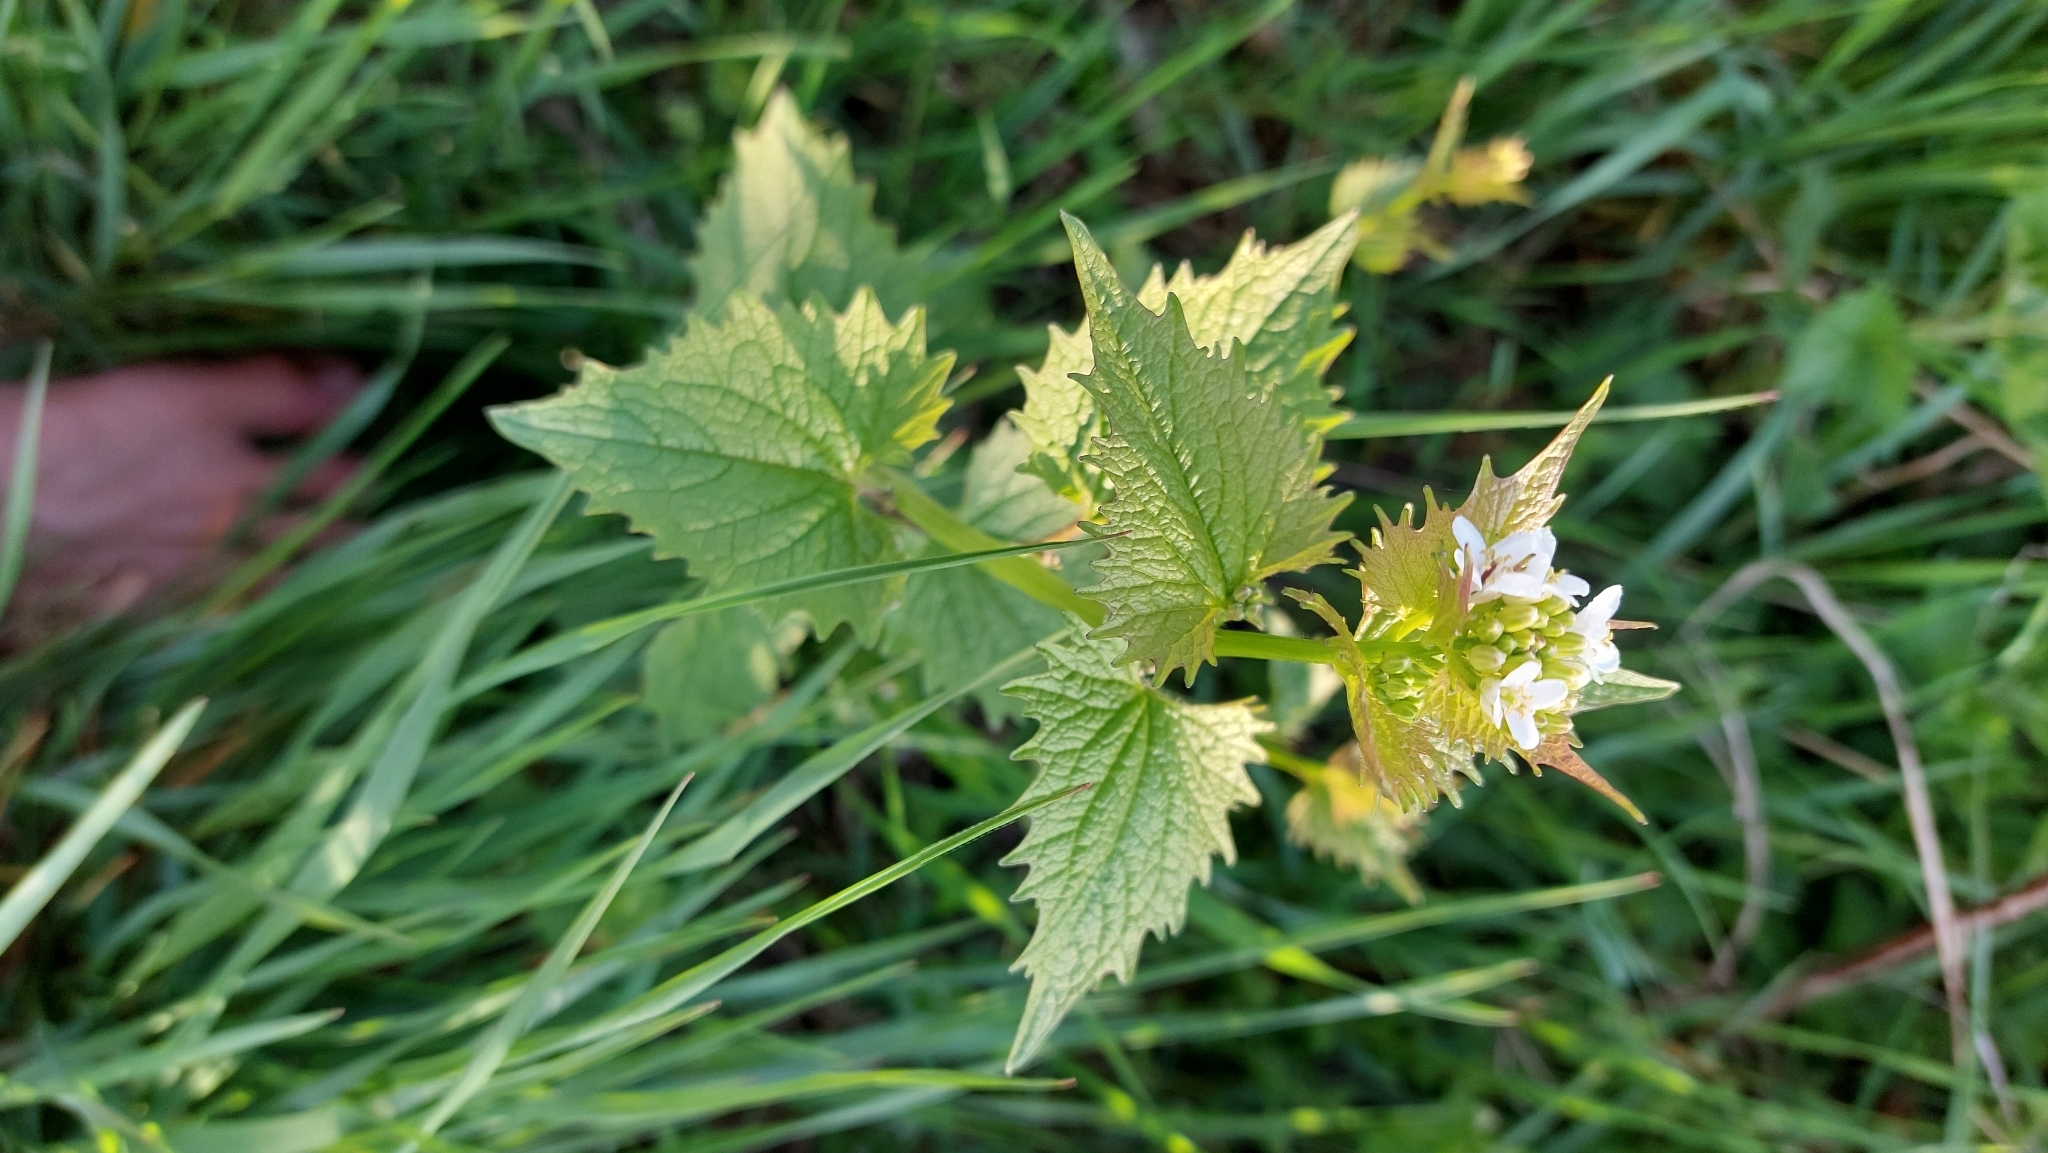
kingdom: Plantae
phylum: Tracheophyta
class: Magnoliopsida
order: Brassicales
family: Brassicaceae
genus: Alliaria
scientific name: Alliaria petiolata
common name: Garlic mustard
